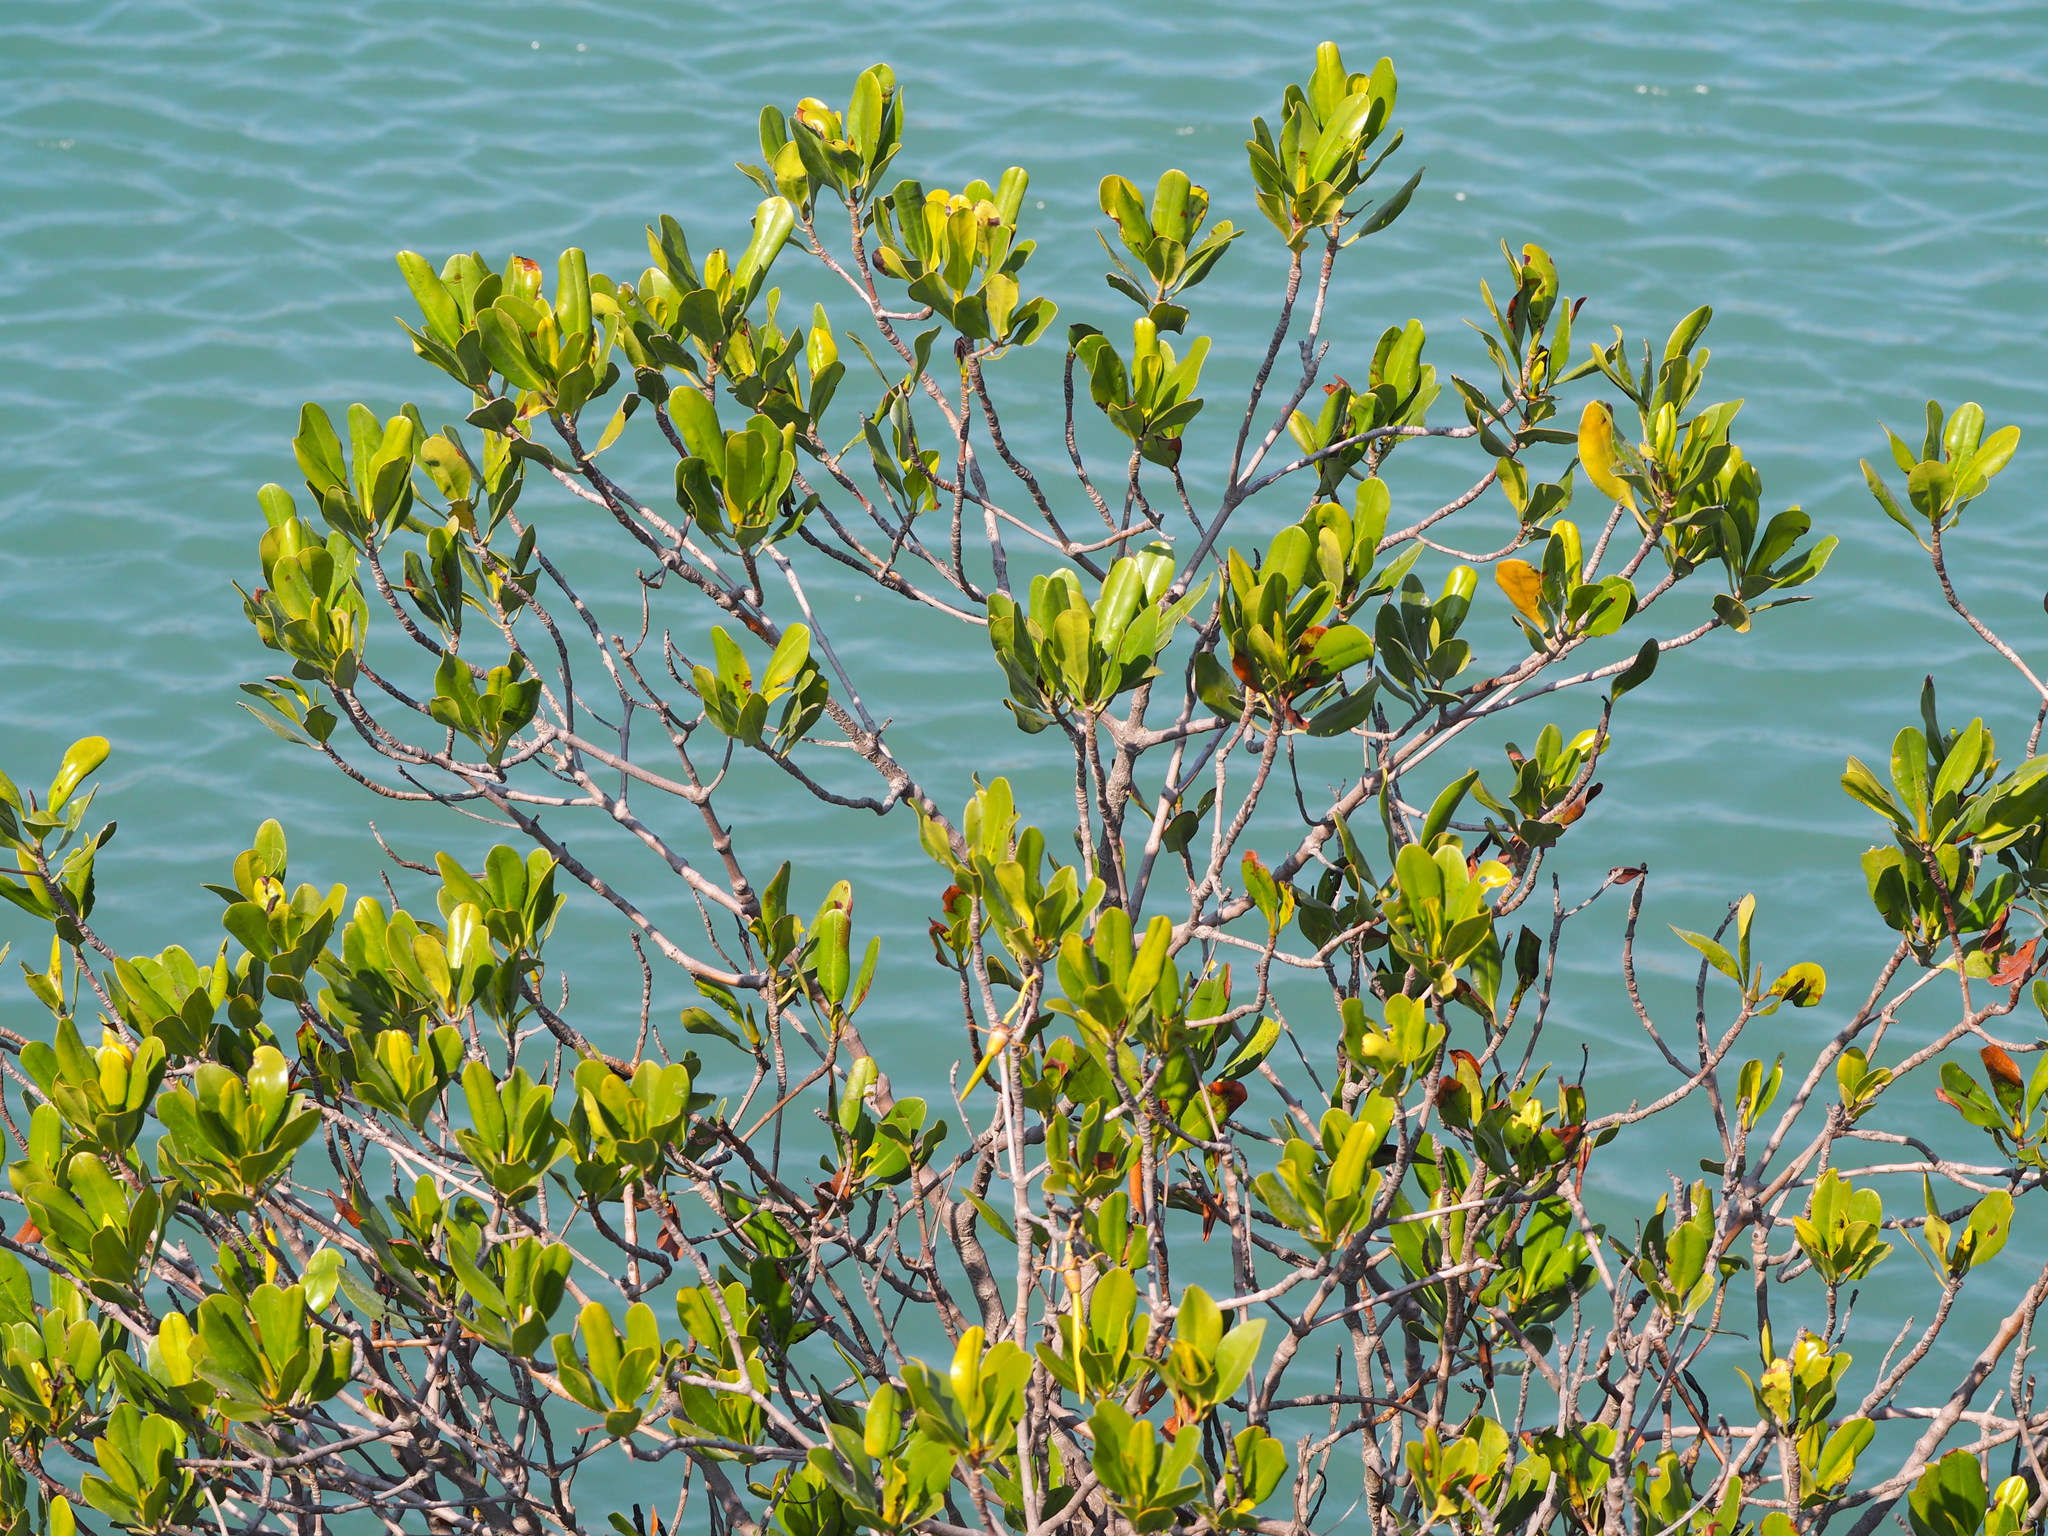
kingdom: Plantae
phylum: Tracheophyta
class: Magnoliopsida
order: Malpighiales
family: Rhizophoraceae
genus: Kandelia
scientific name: Kandelia obovata
